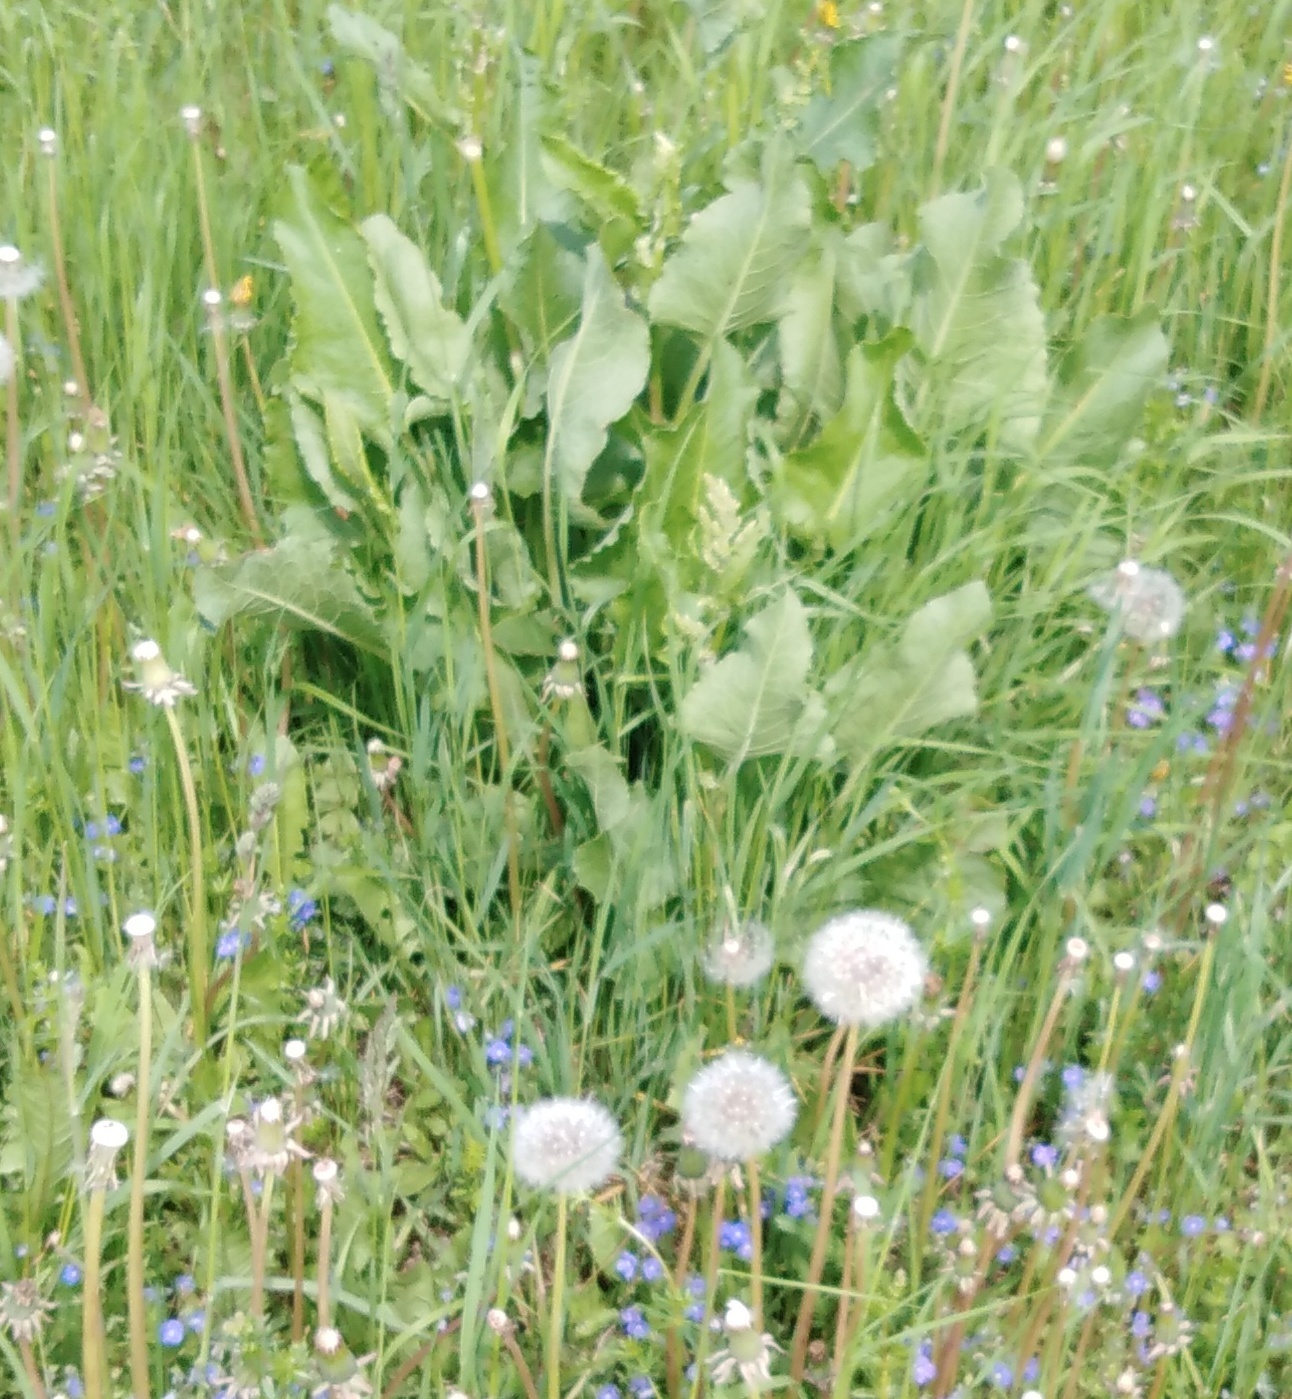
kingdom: Plantae
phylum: Tracheophyta
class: Magnoliopsida
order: Caryophyllales
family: Polygonaceae
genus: Rumex
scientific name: Rumex confertus
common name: Russian dock
